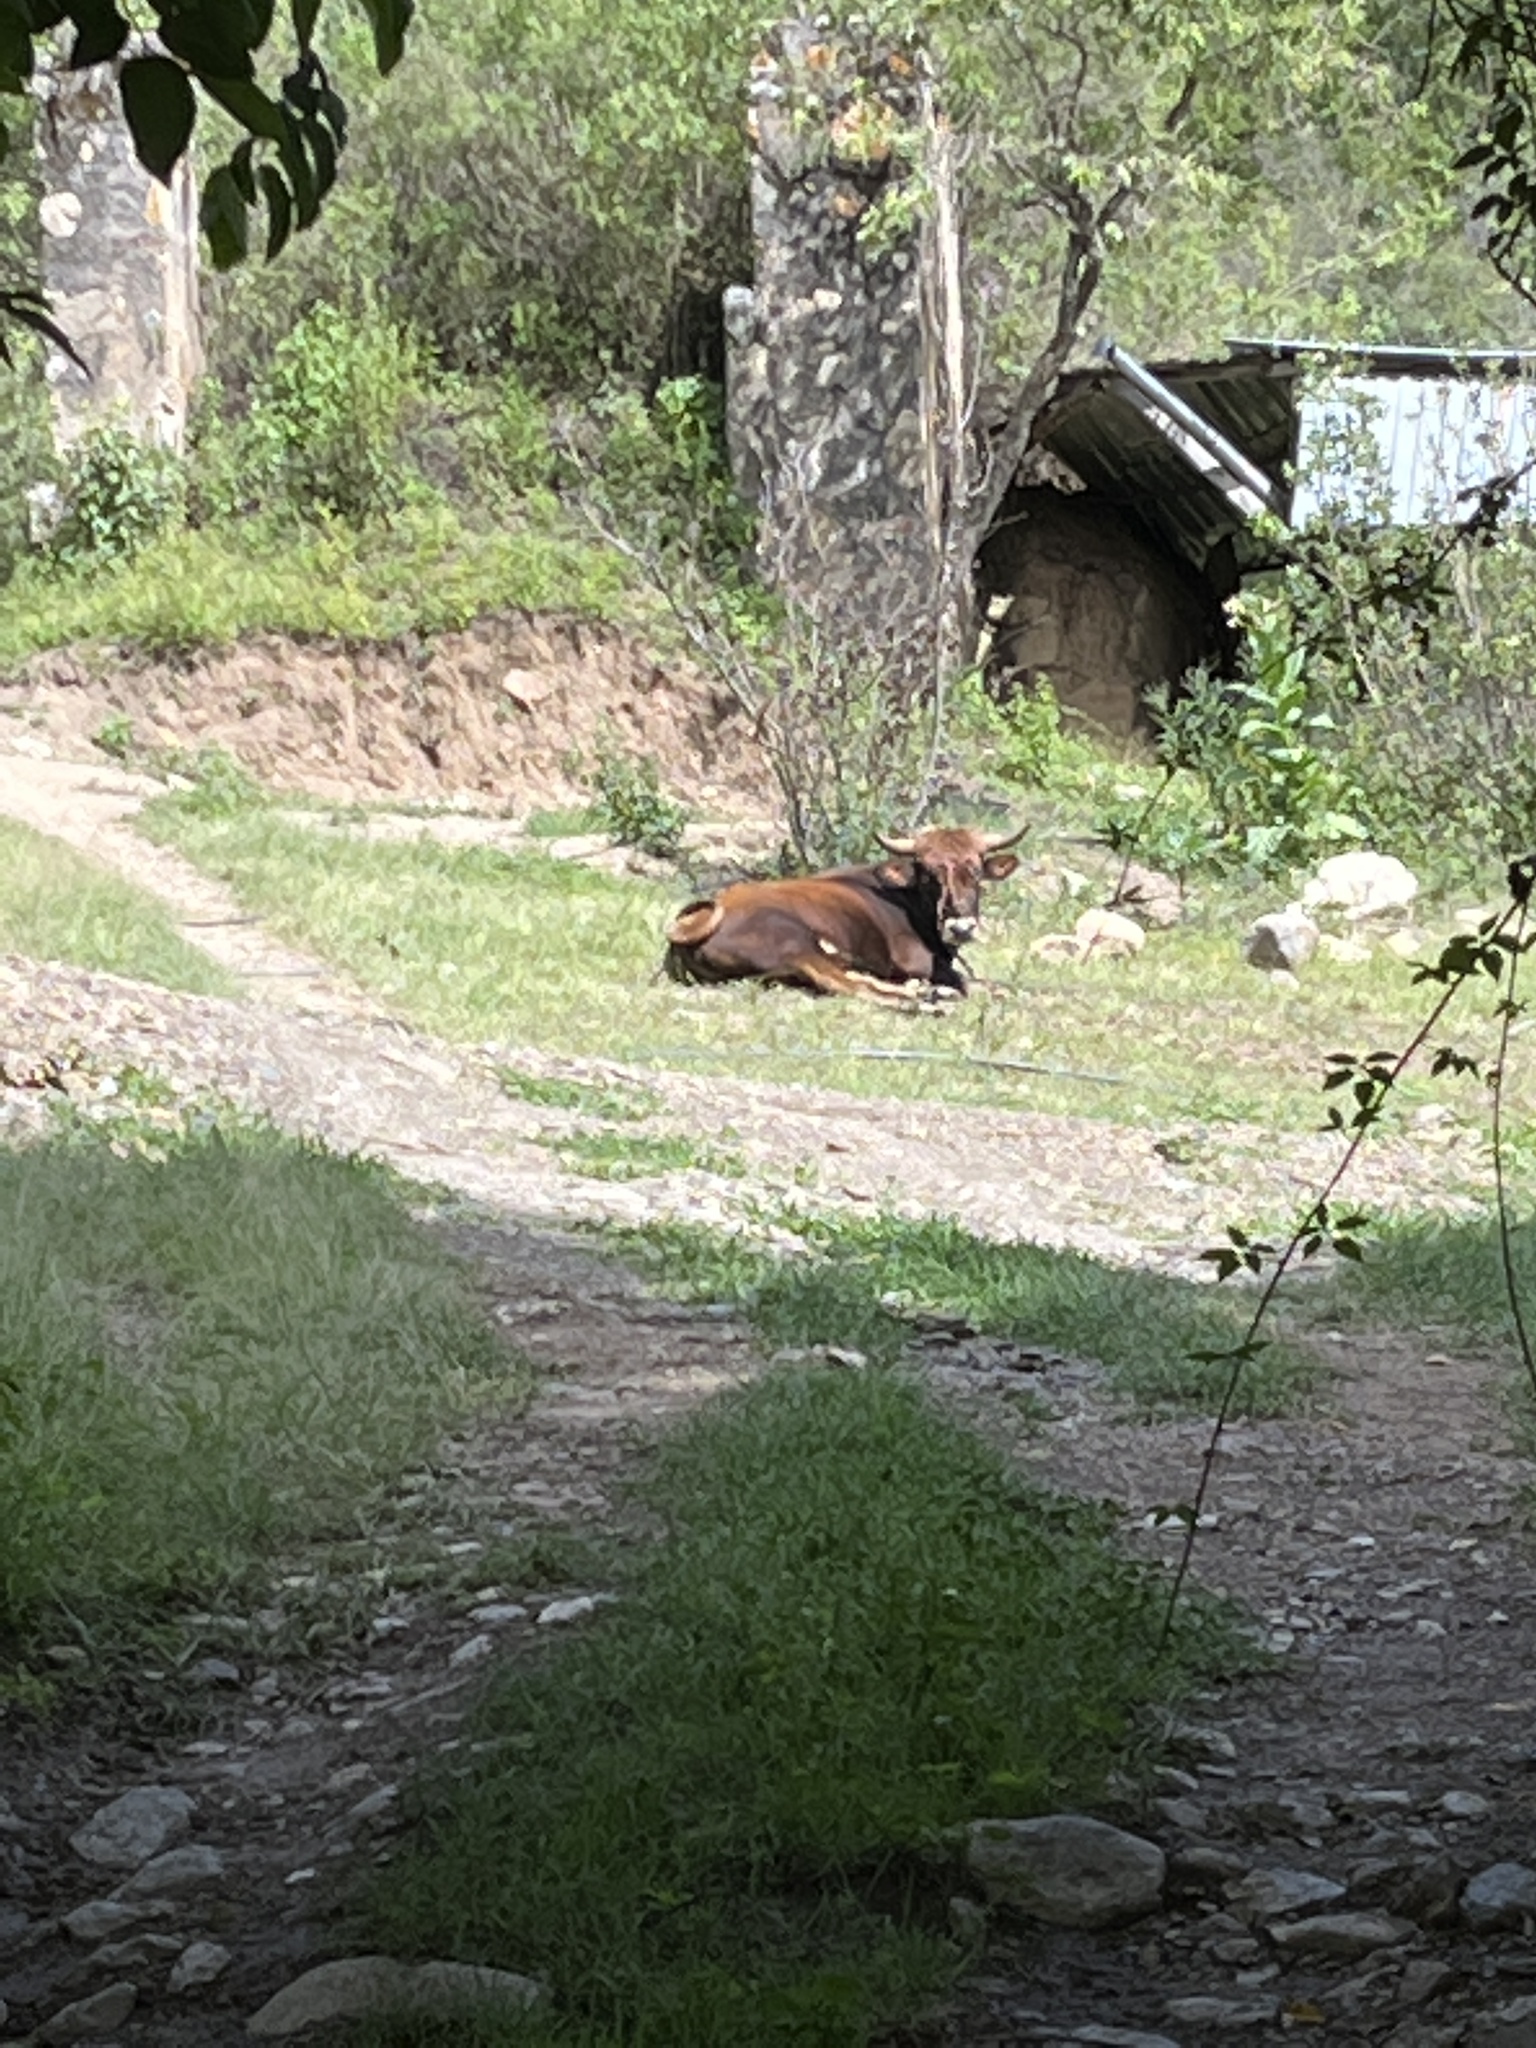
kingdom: Animalia
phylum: Chordata
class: Mammalia
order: Artiodactyla
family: Bovidae
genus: Bos
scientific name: Bos taurus
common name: Domesticated cattle
